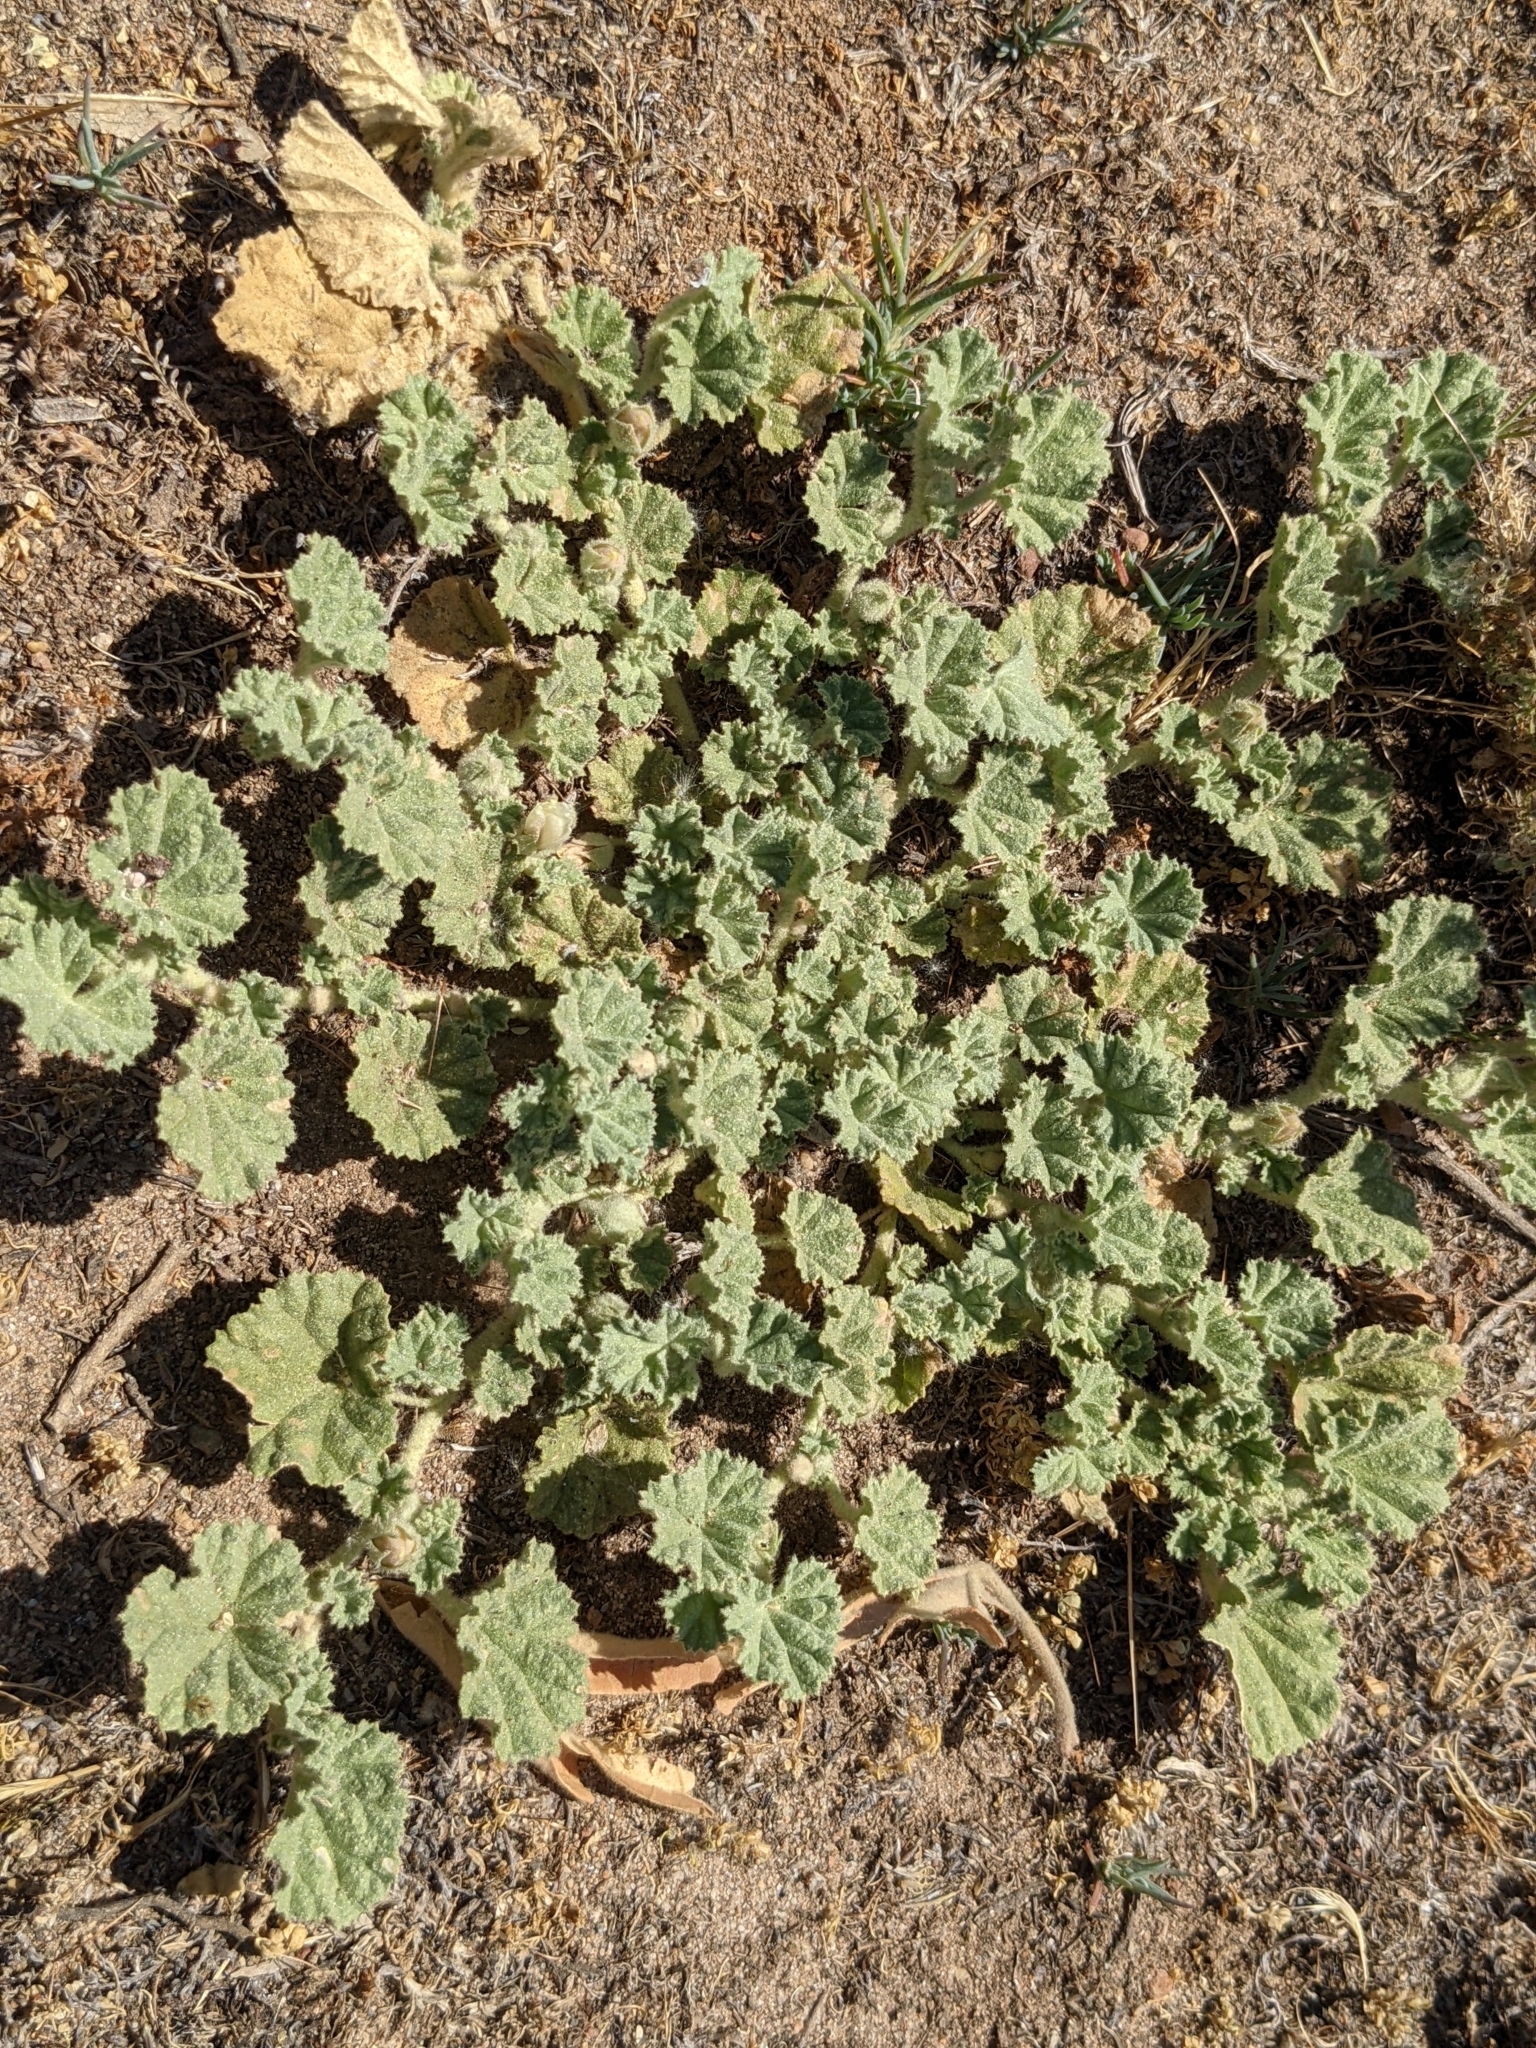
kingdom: Plantae
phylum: Tracheophyta
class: Magnoliopsida
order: Malvales
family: Malvaceae
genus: Malvella
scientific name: Malvella leprosa
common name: Alkali-mallow
